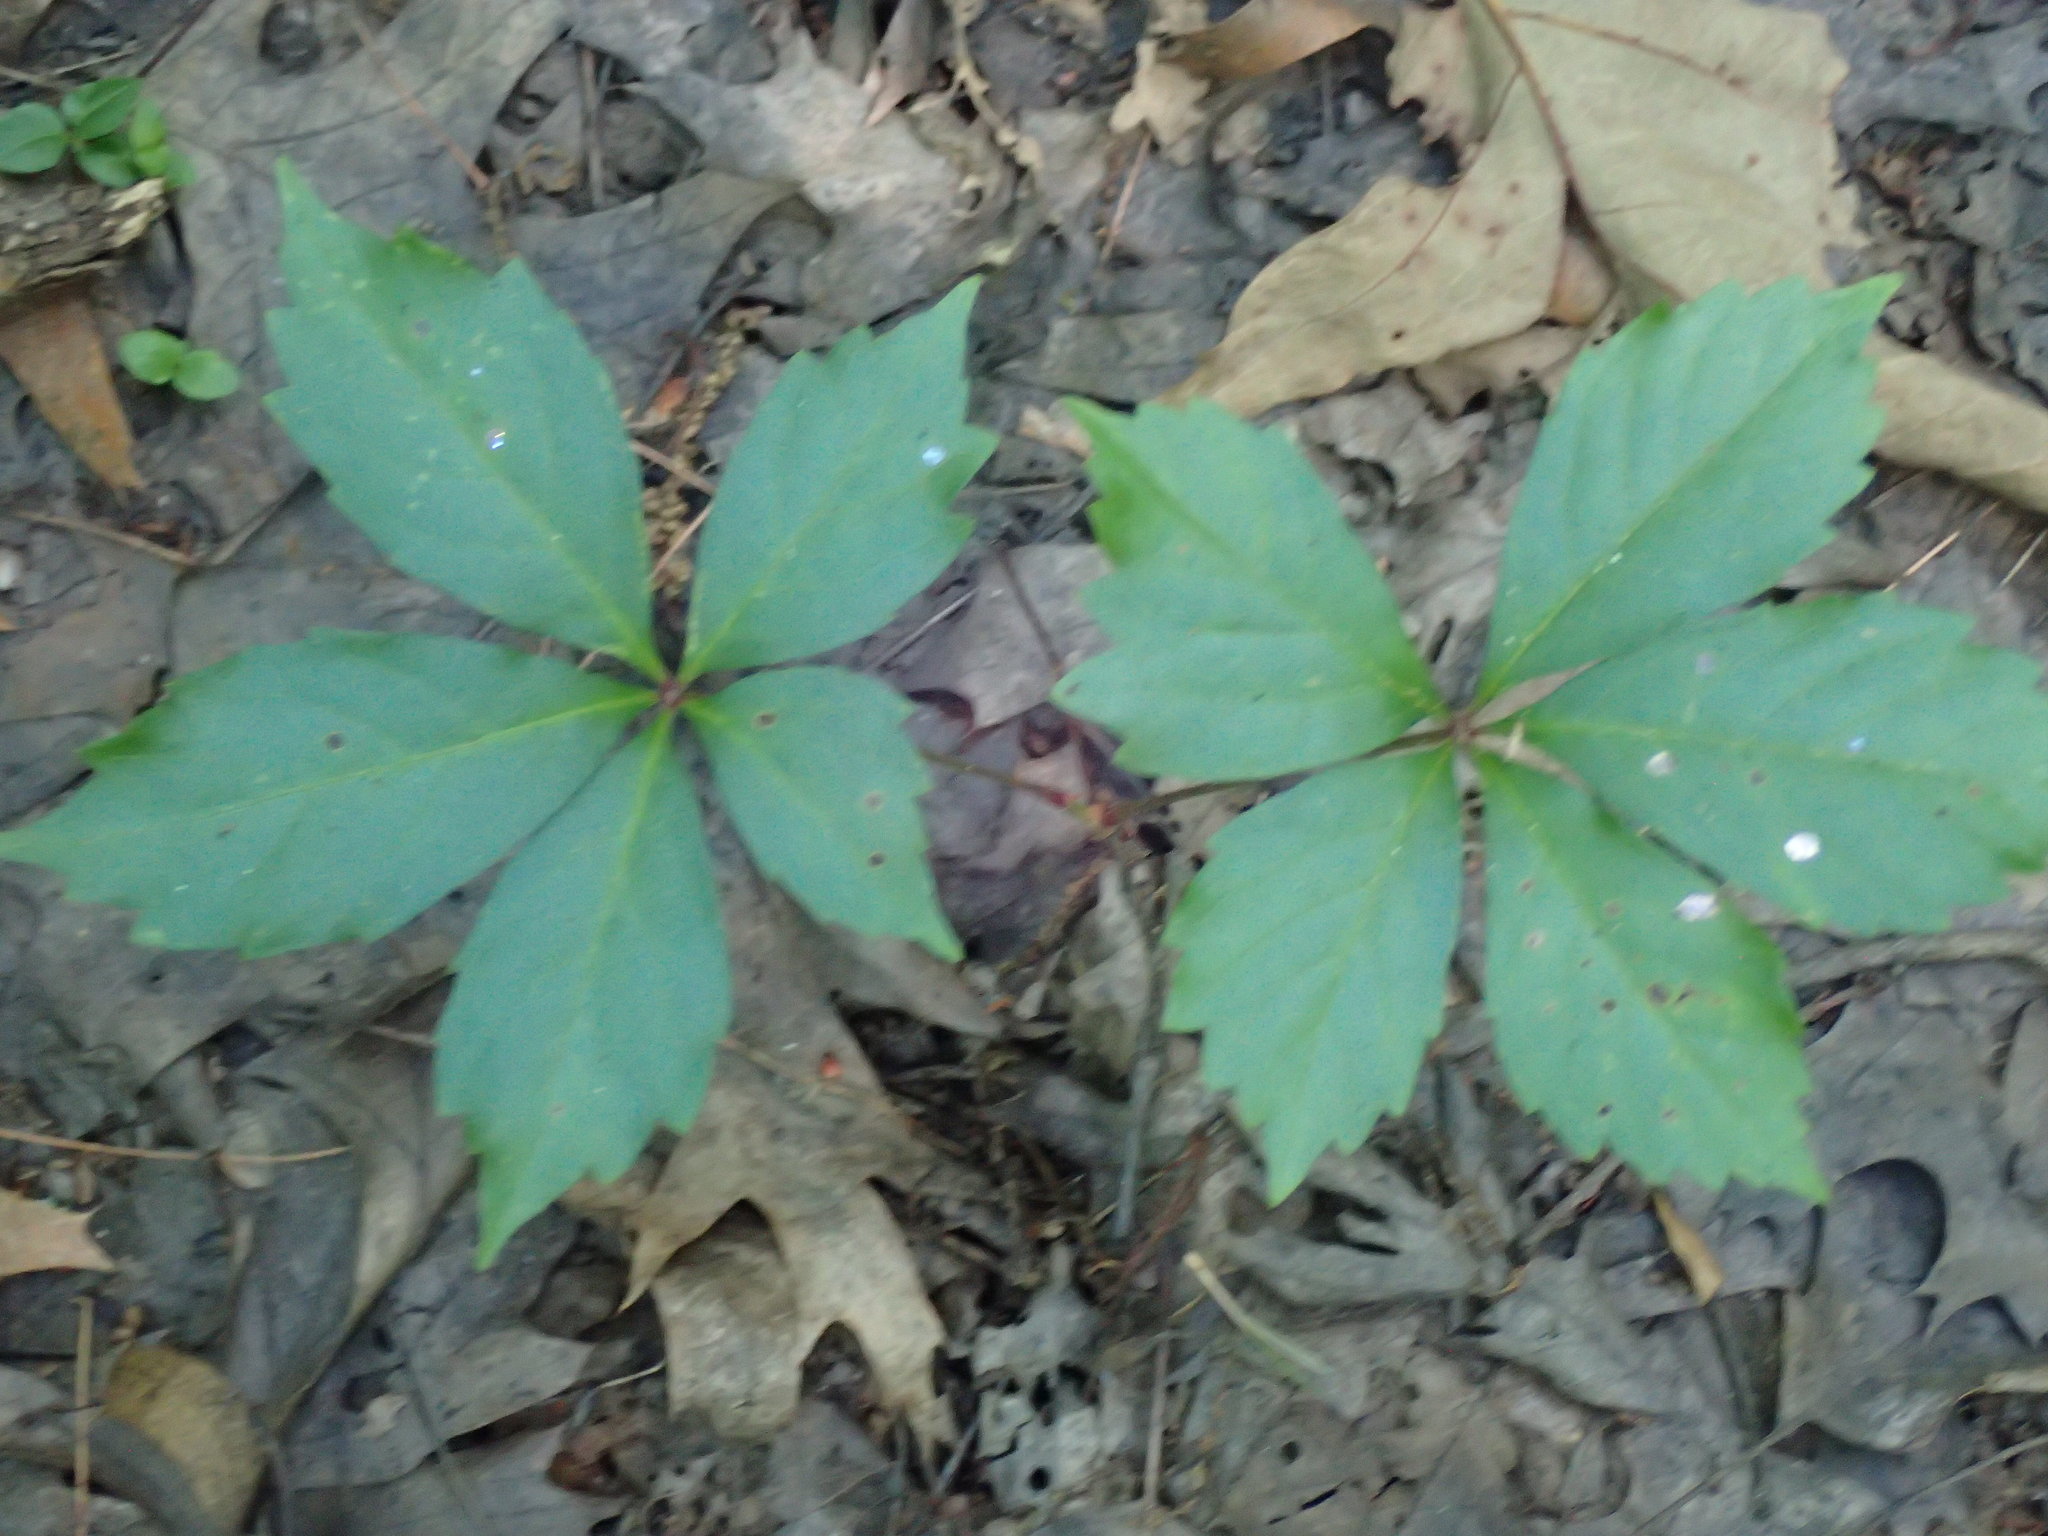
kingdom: Plantae
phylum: Tracheophyta
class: Magnoliopsida
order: Vitales
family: Vitaceae
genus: Parthenocissus
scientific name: Parthenocissus quinquefolia
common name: Virginia-creeper
